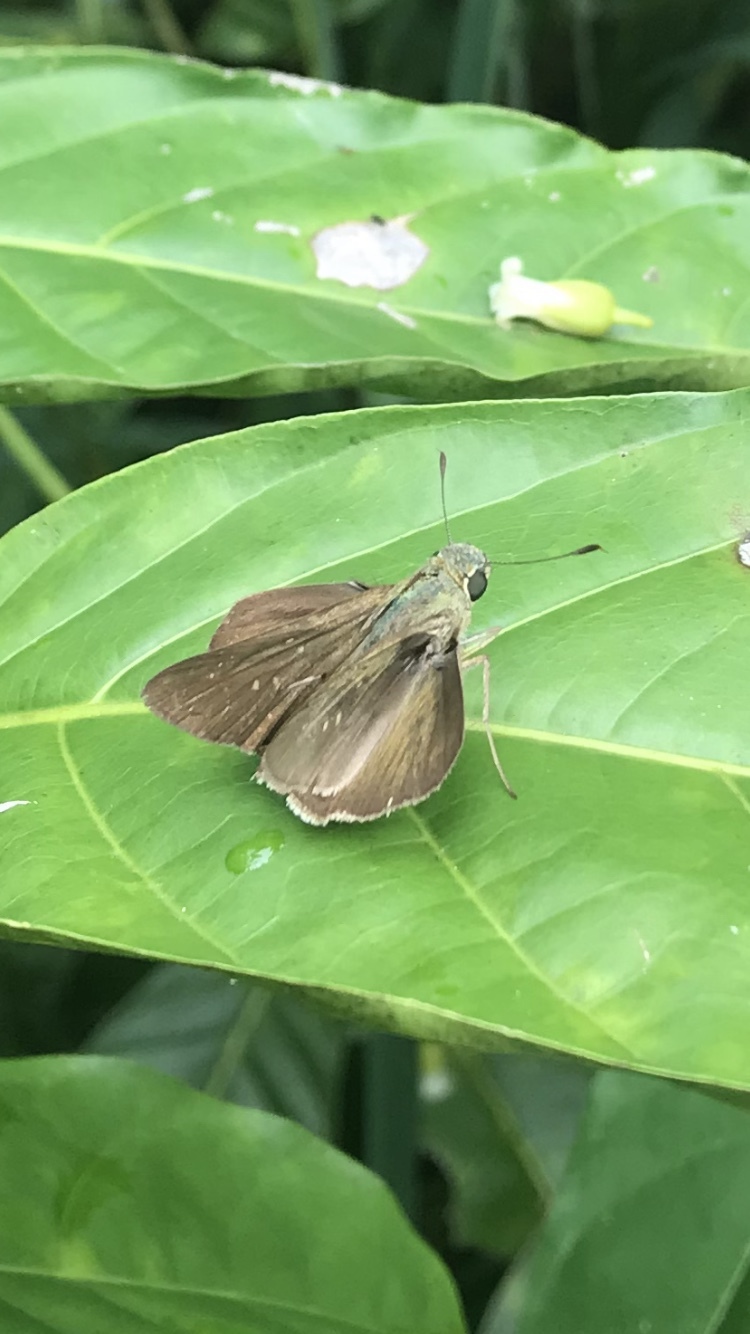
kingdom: Animalia
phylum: Arthropoda
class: Insecta
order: Lepidoptera
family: Hesperiidae
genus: Pelopidas
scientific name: Pelopidas agna
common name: Little branded swift
